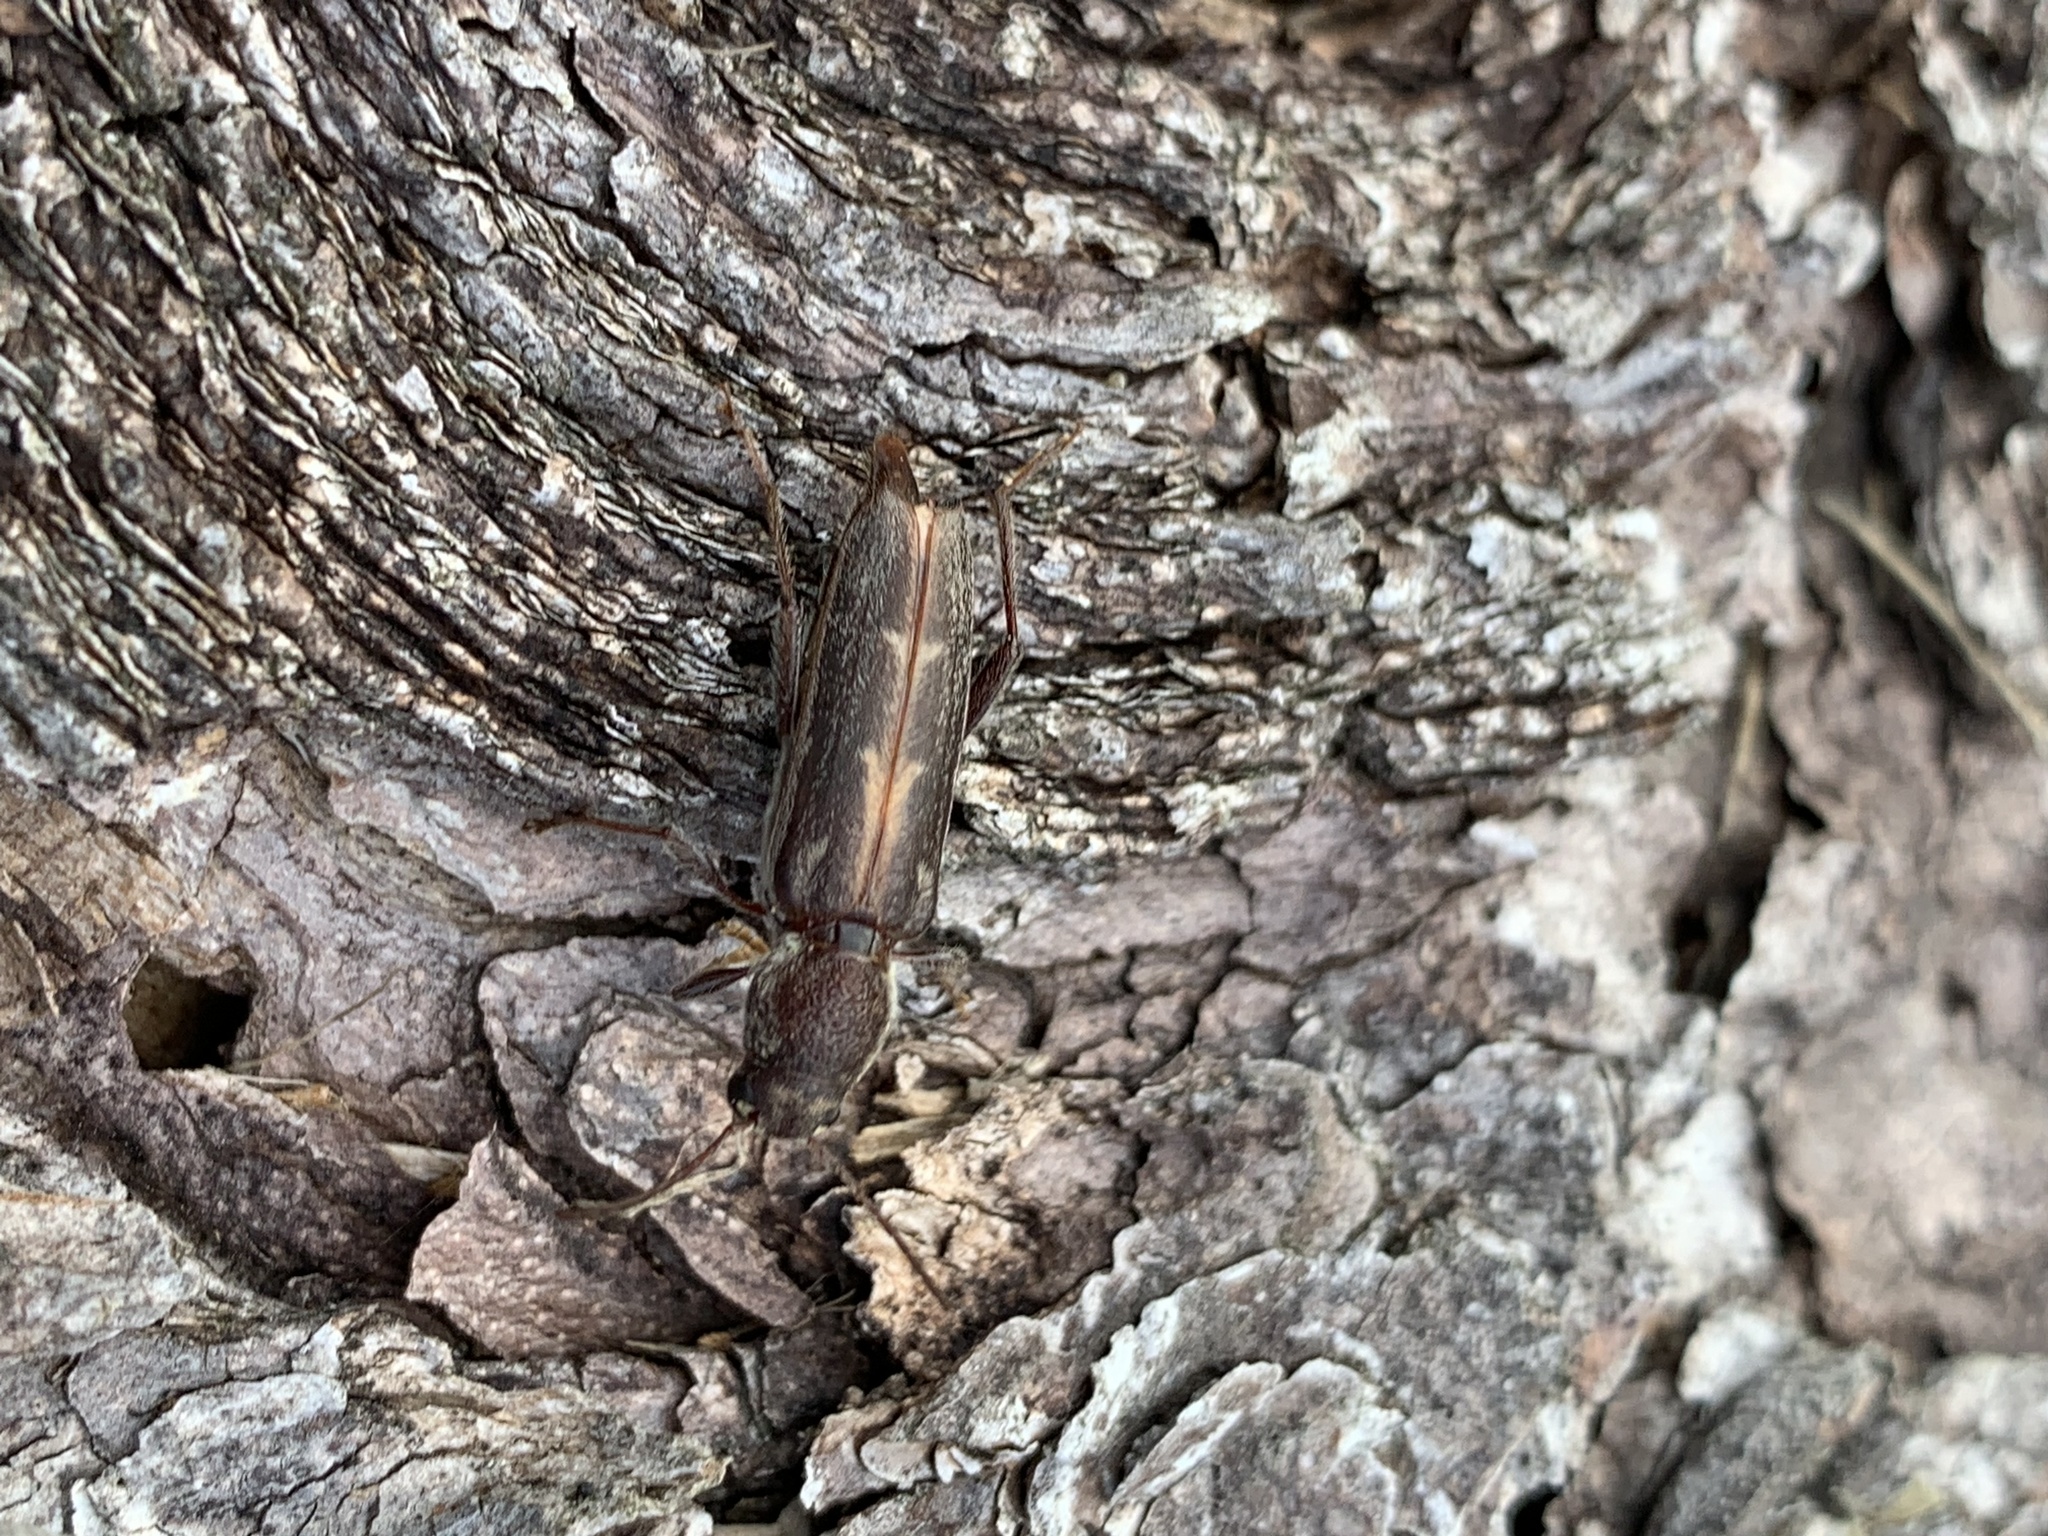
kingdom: Animalia
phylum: Arthropoda
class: Insecta
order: Coleoptera
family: Cerambycidae
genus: Xylotrechus
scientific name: Xylotrechus sagittatus
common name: Arrowhead borer
